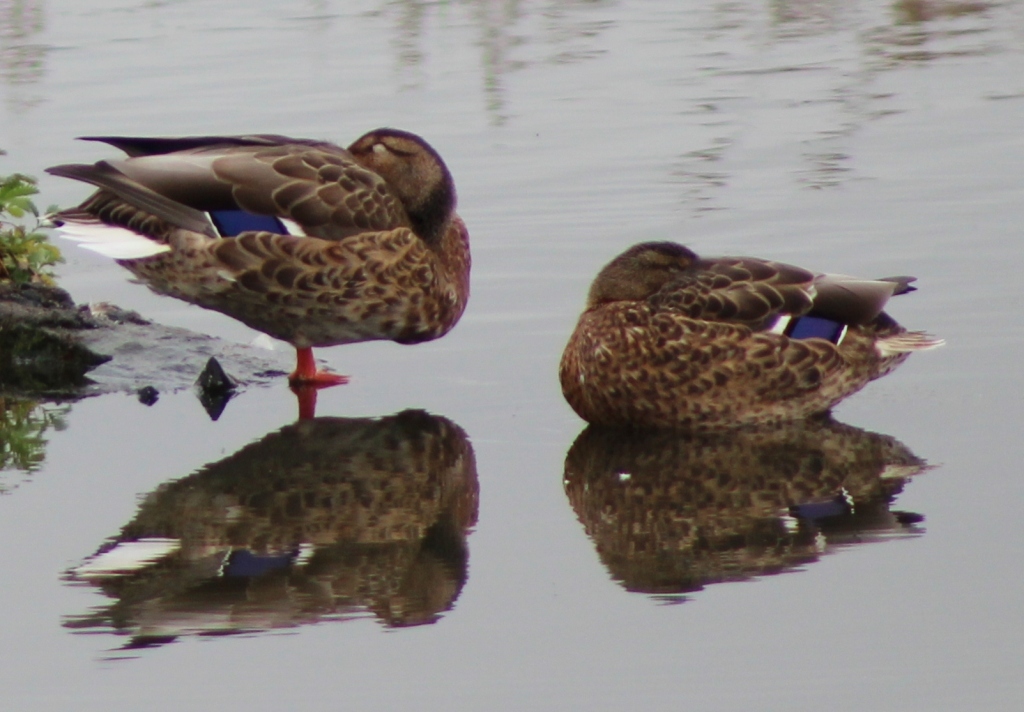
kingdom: Animalia
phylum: Chordata
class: Aves
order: Anseriformes
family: Anatidae
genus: Anas
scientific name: Anas platyrhynchos
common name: Mallard
